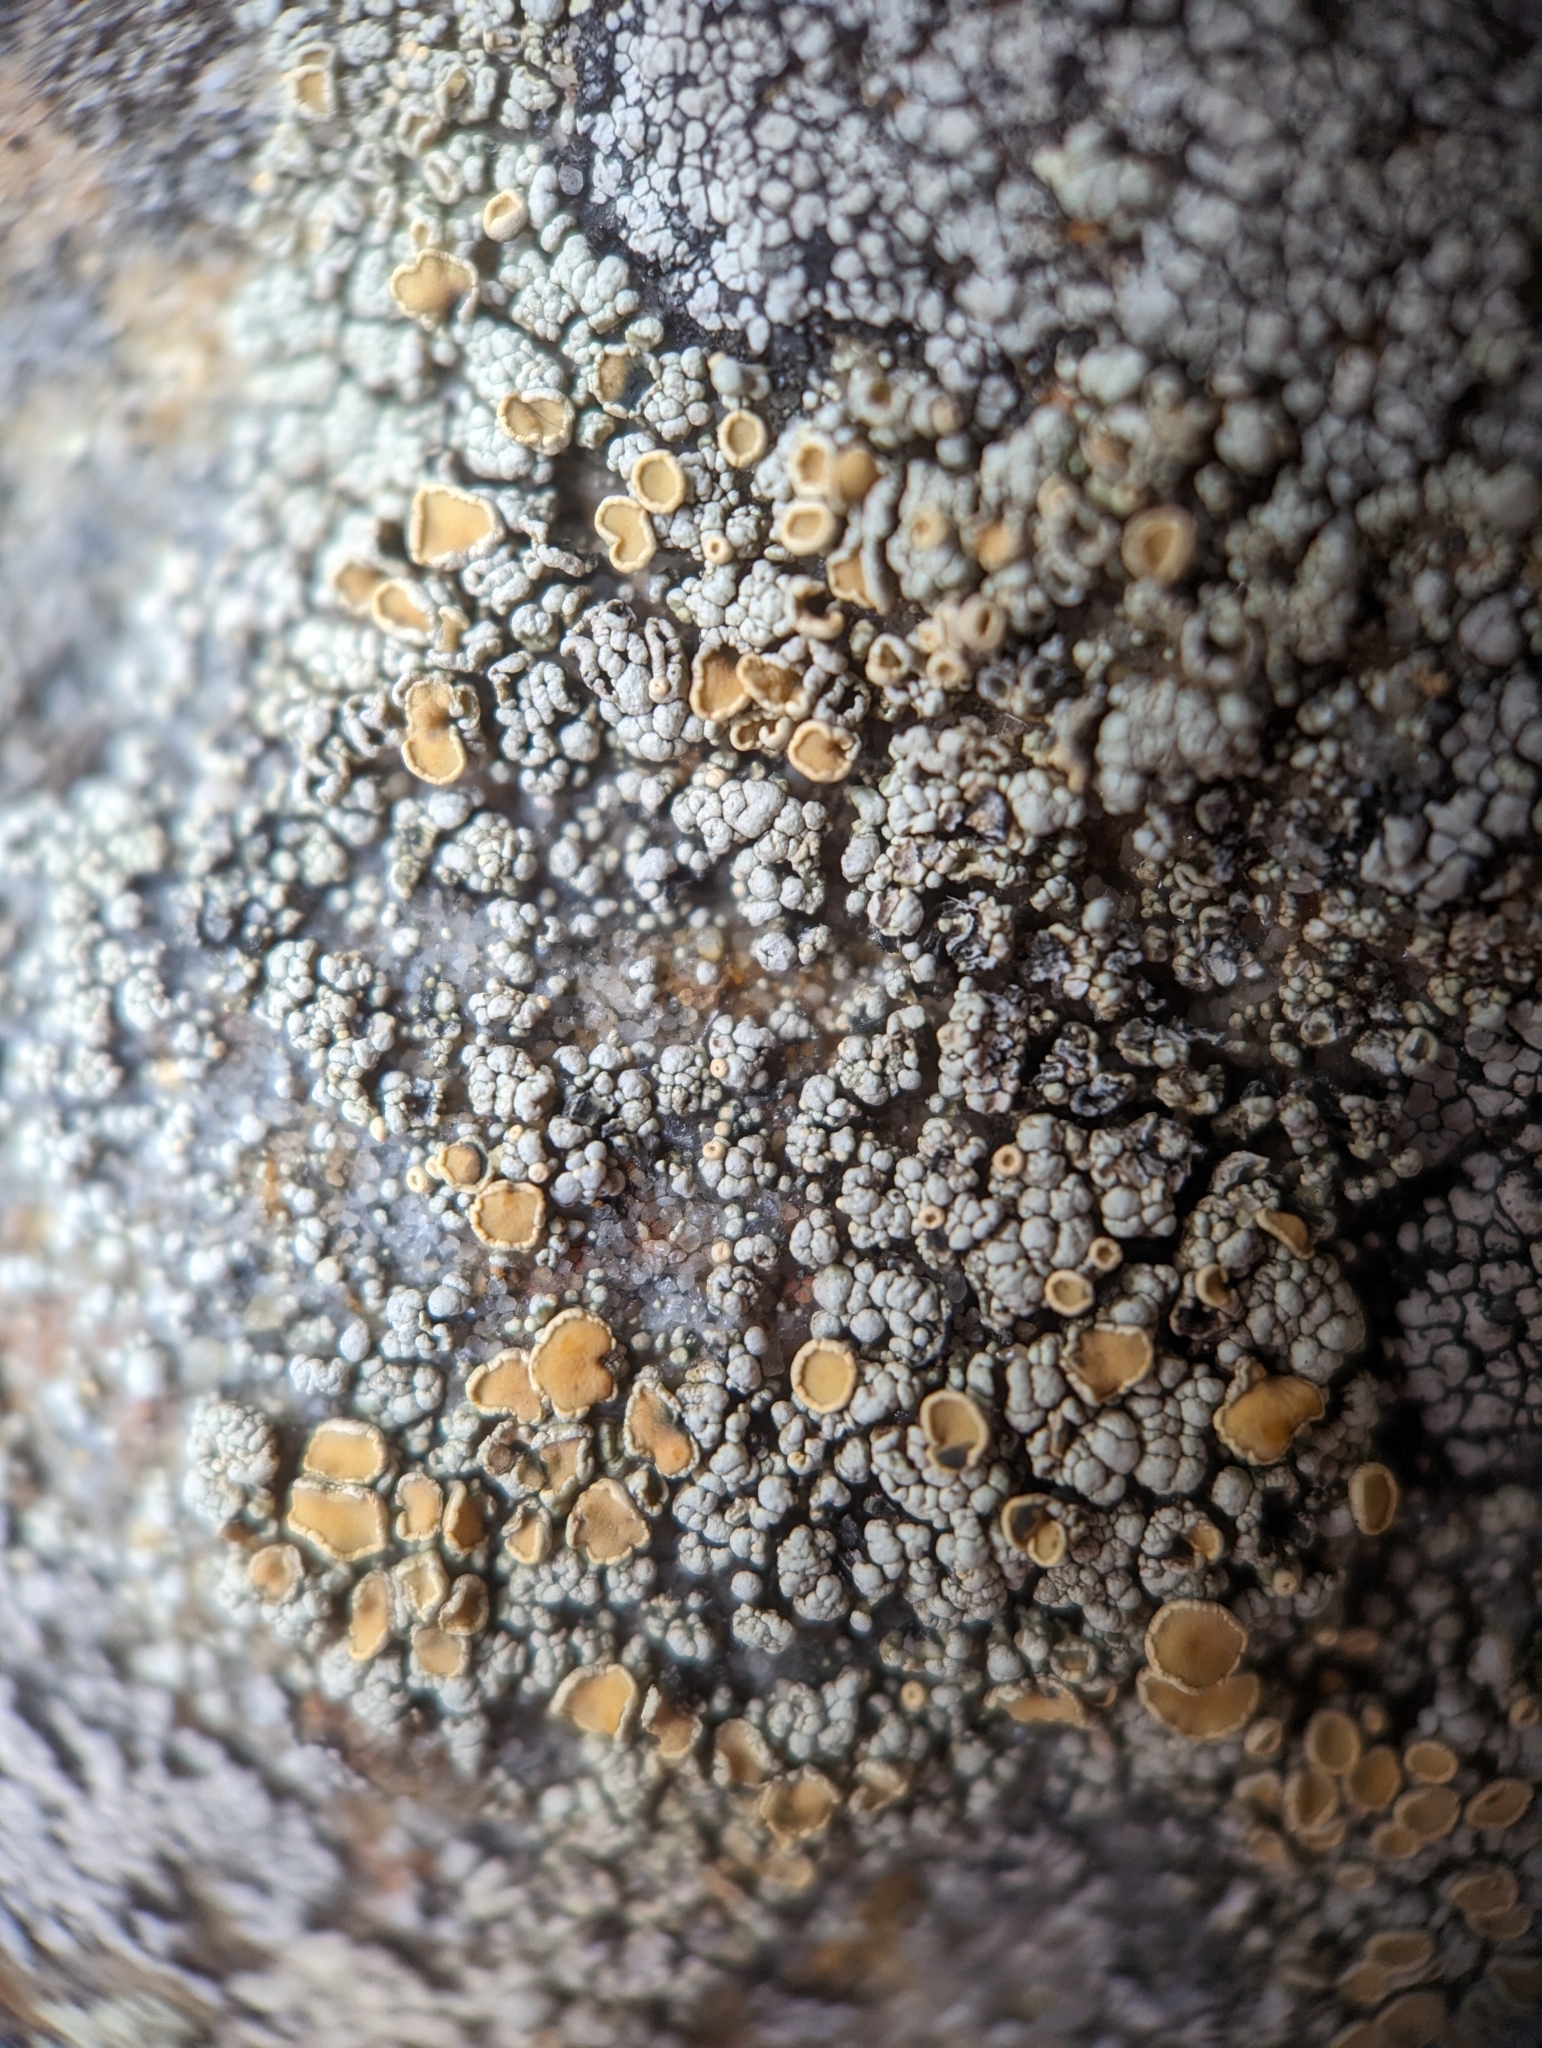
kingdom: Fungi
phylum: Ascomycota
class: Lecanoromycetes
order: Lecanorales
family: Lecanoraceae
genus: Sedelnikovaea
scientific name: Sedelnikovaea subdiscrepans
